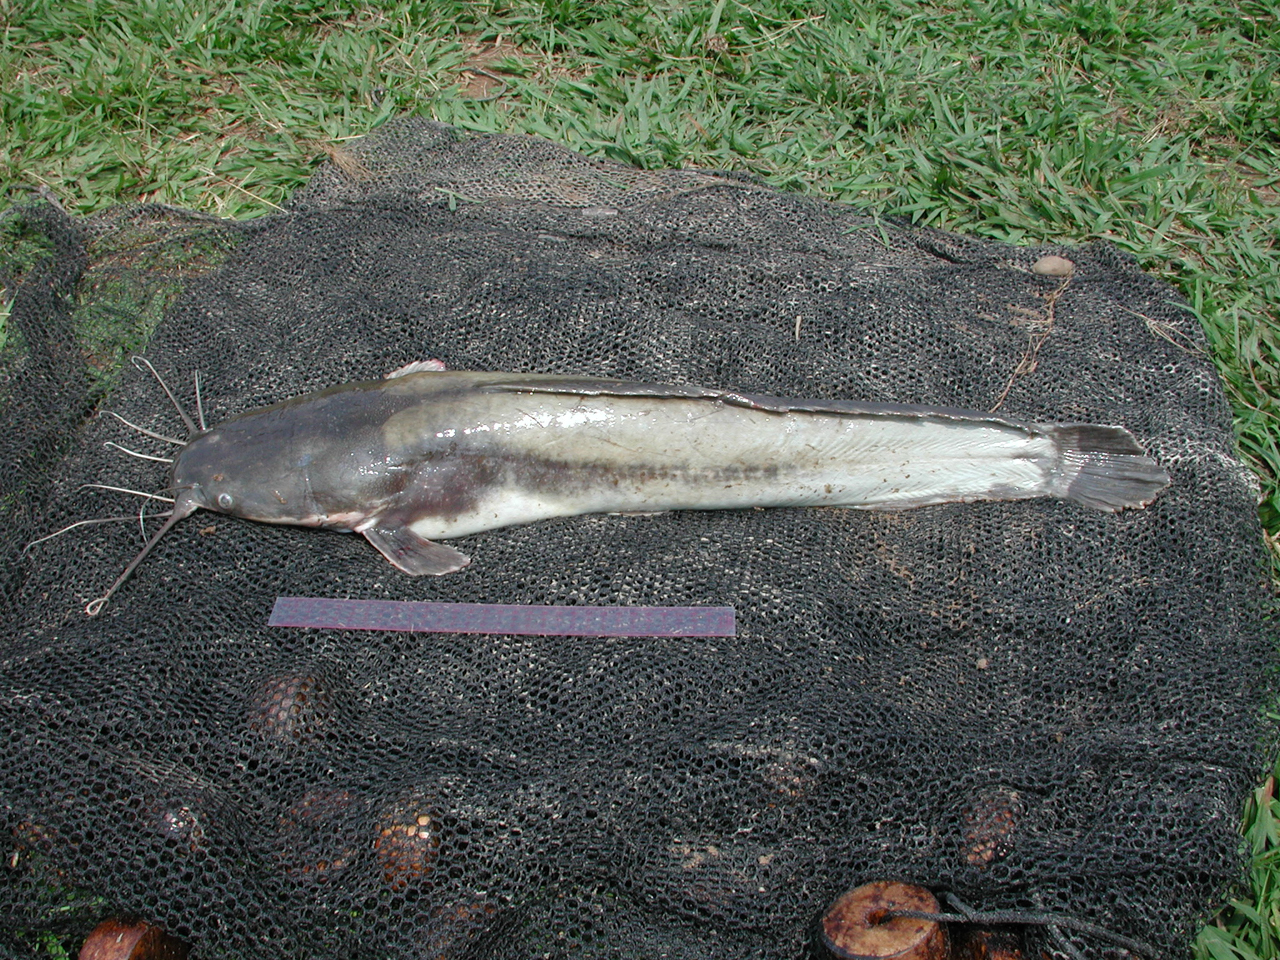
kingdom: Animalia
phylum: Chordata
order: Siluriformes
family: Clariidae
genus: Clarias
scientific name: Clarias gariepinus
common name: African catfish
